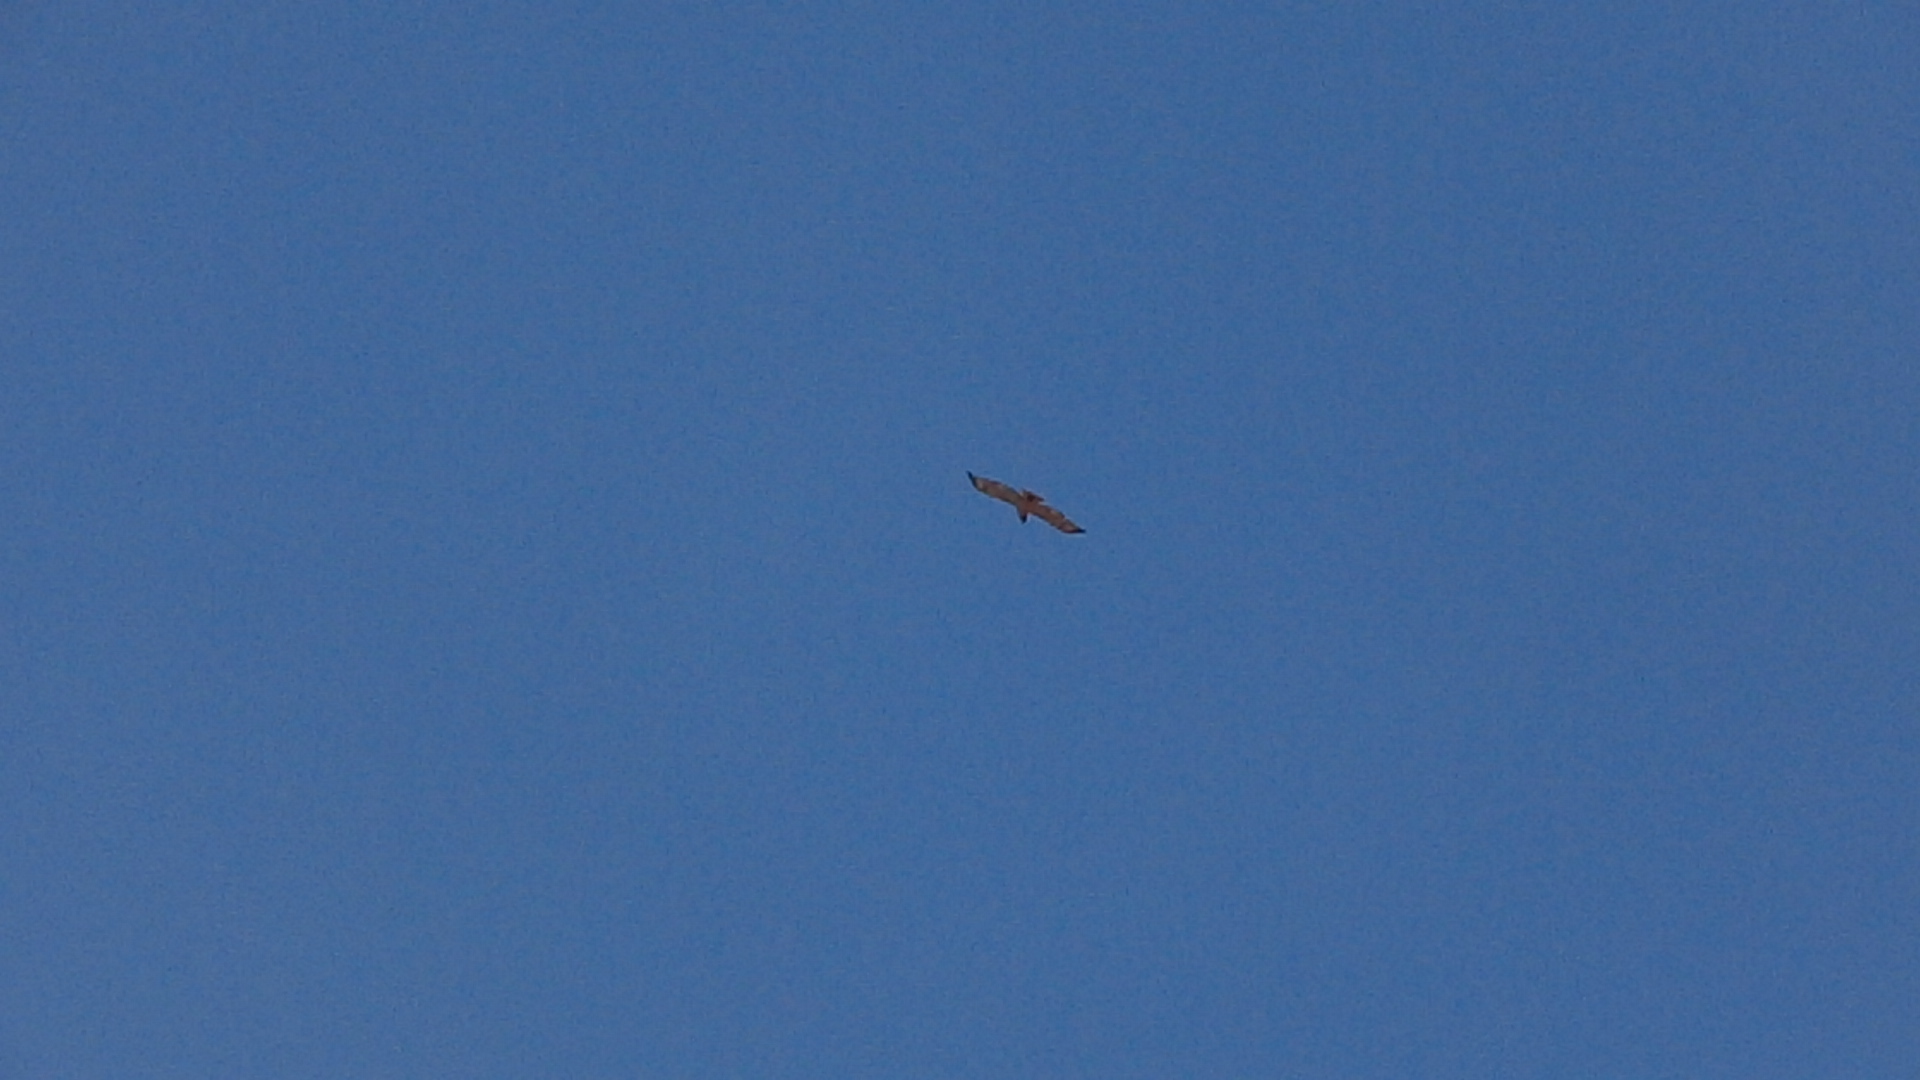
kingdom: Animalia
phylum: Chordata
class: Aves
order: Accipitriformes
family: Accipitridae
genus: Buteo
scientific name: Buteo jamaicensis
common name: Red-tailed hawk
